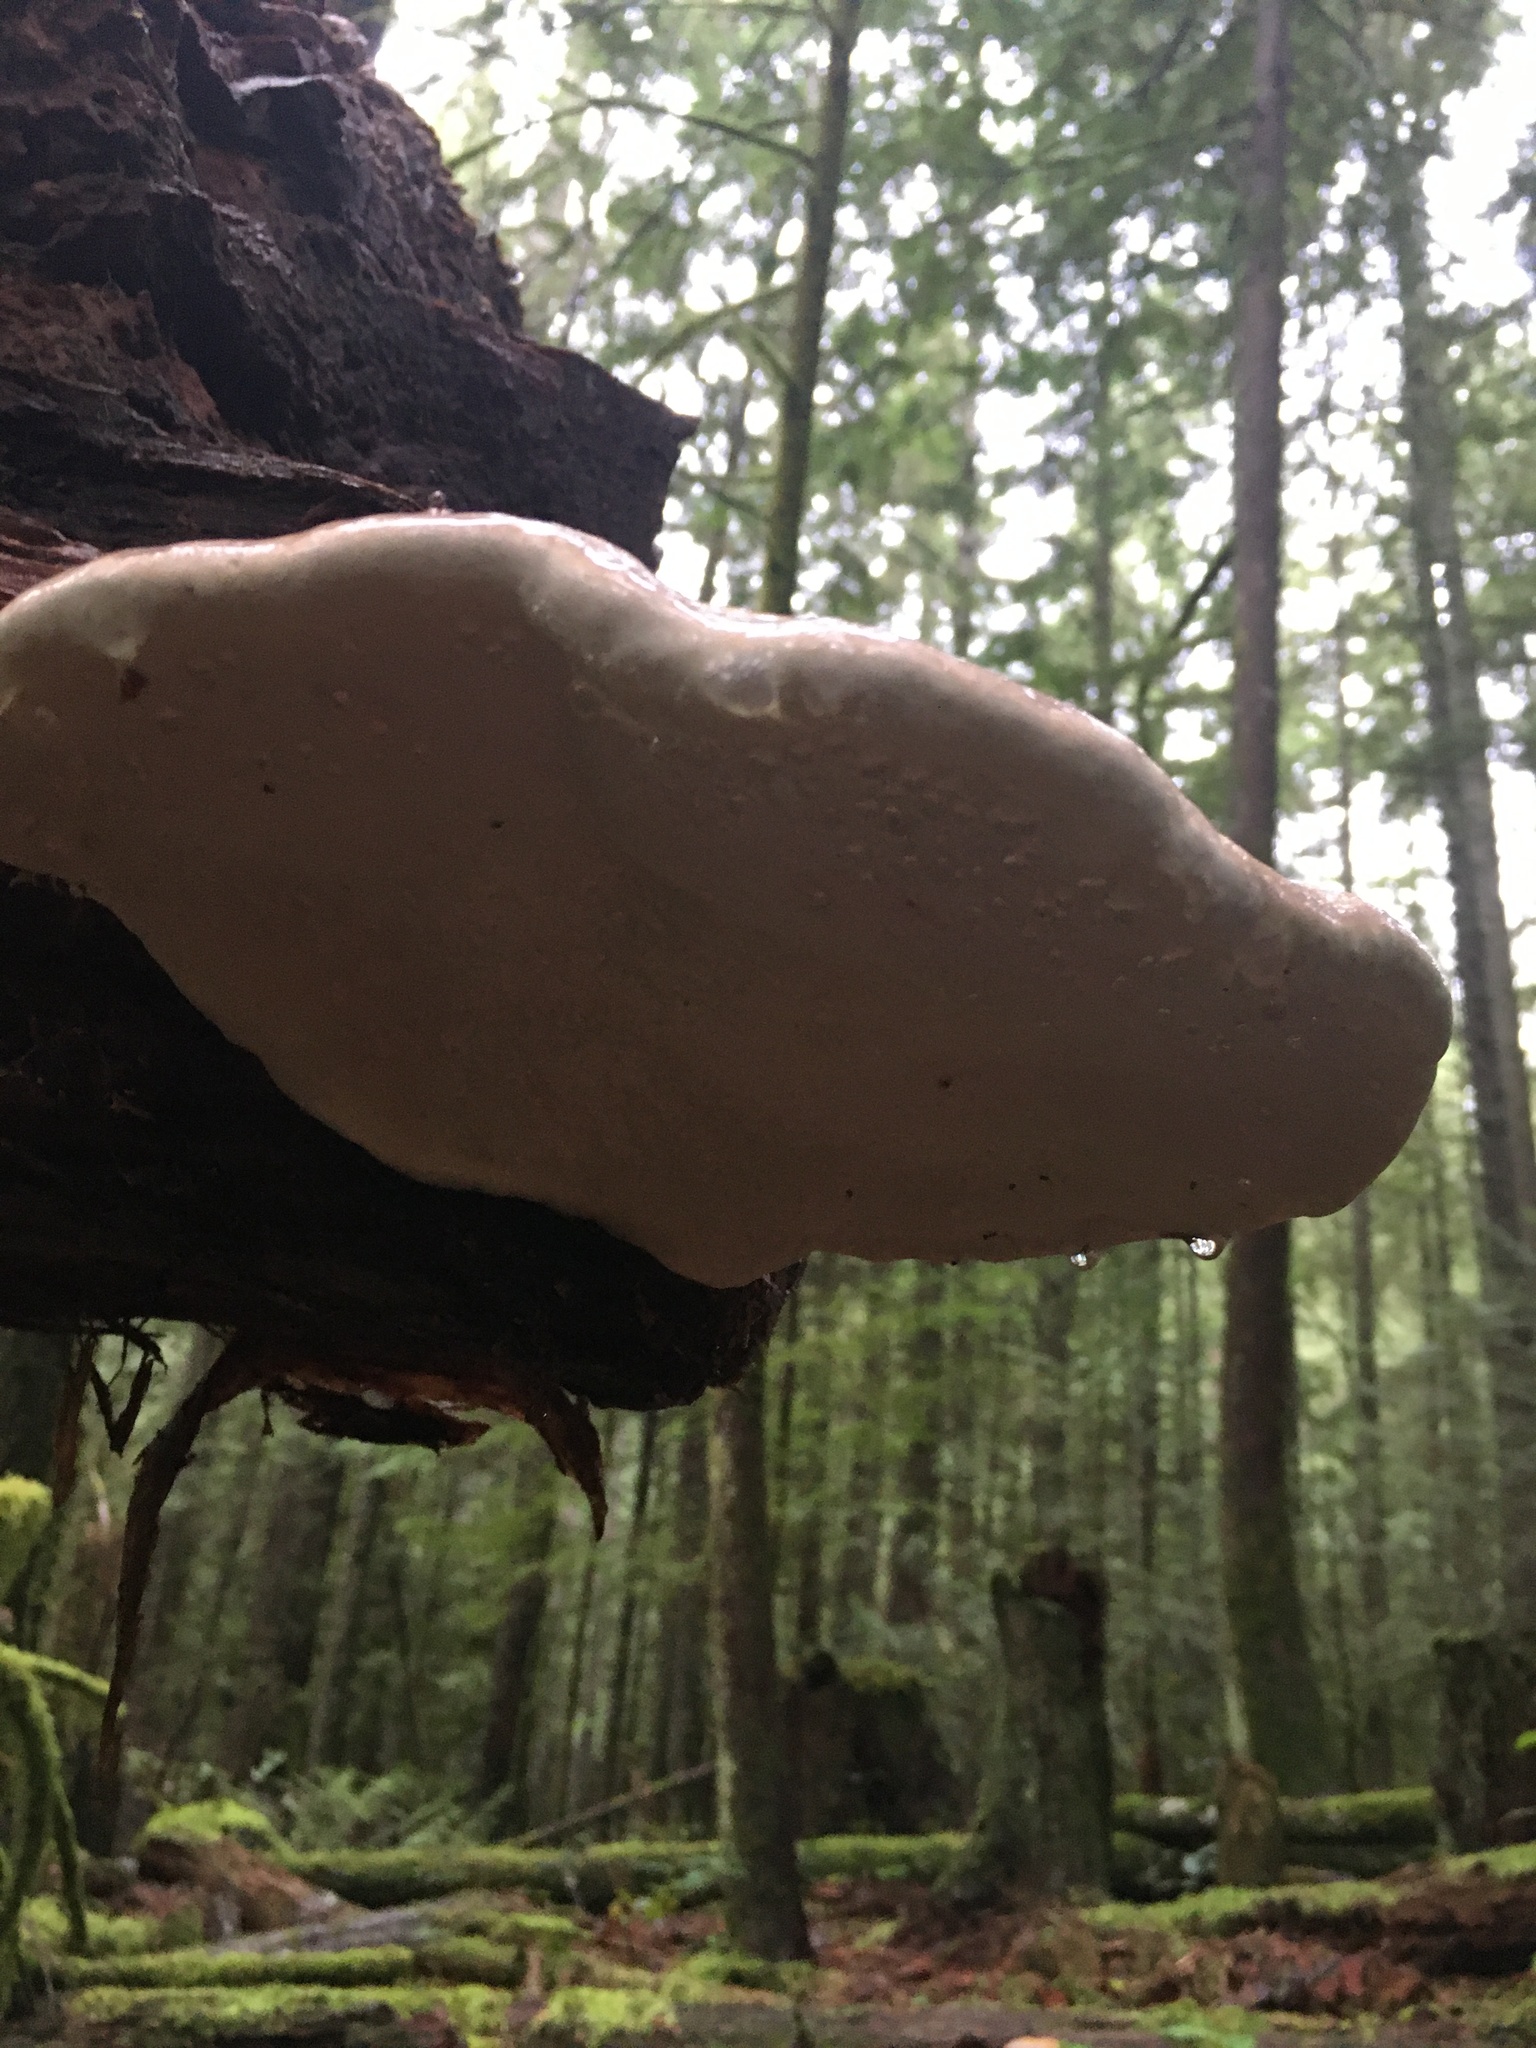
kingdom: Fungi
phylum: Basidiomycota
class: Agaricomycetes
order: Polyporales
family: Fomitopsidaceae
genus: Fomitopsis
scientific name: Fomitopsis mounceae
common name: Northern red belt
